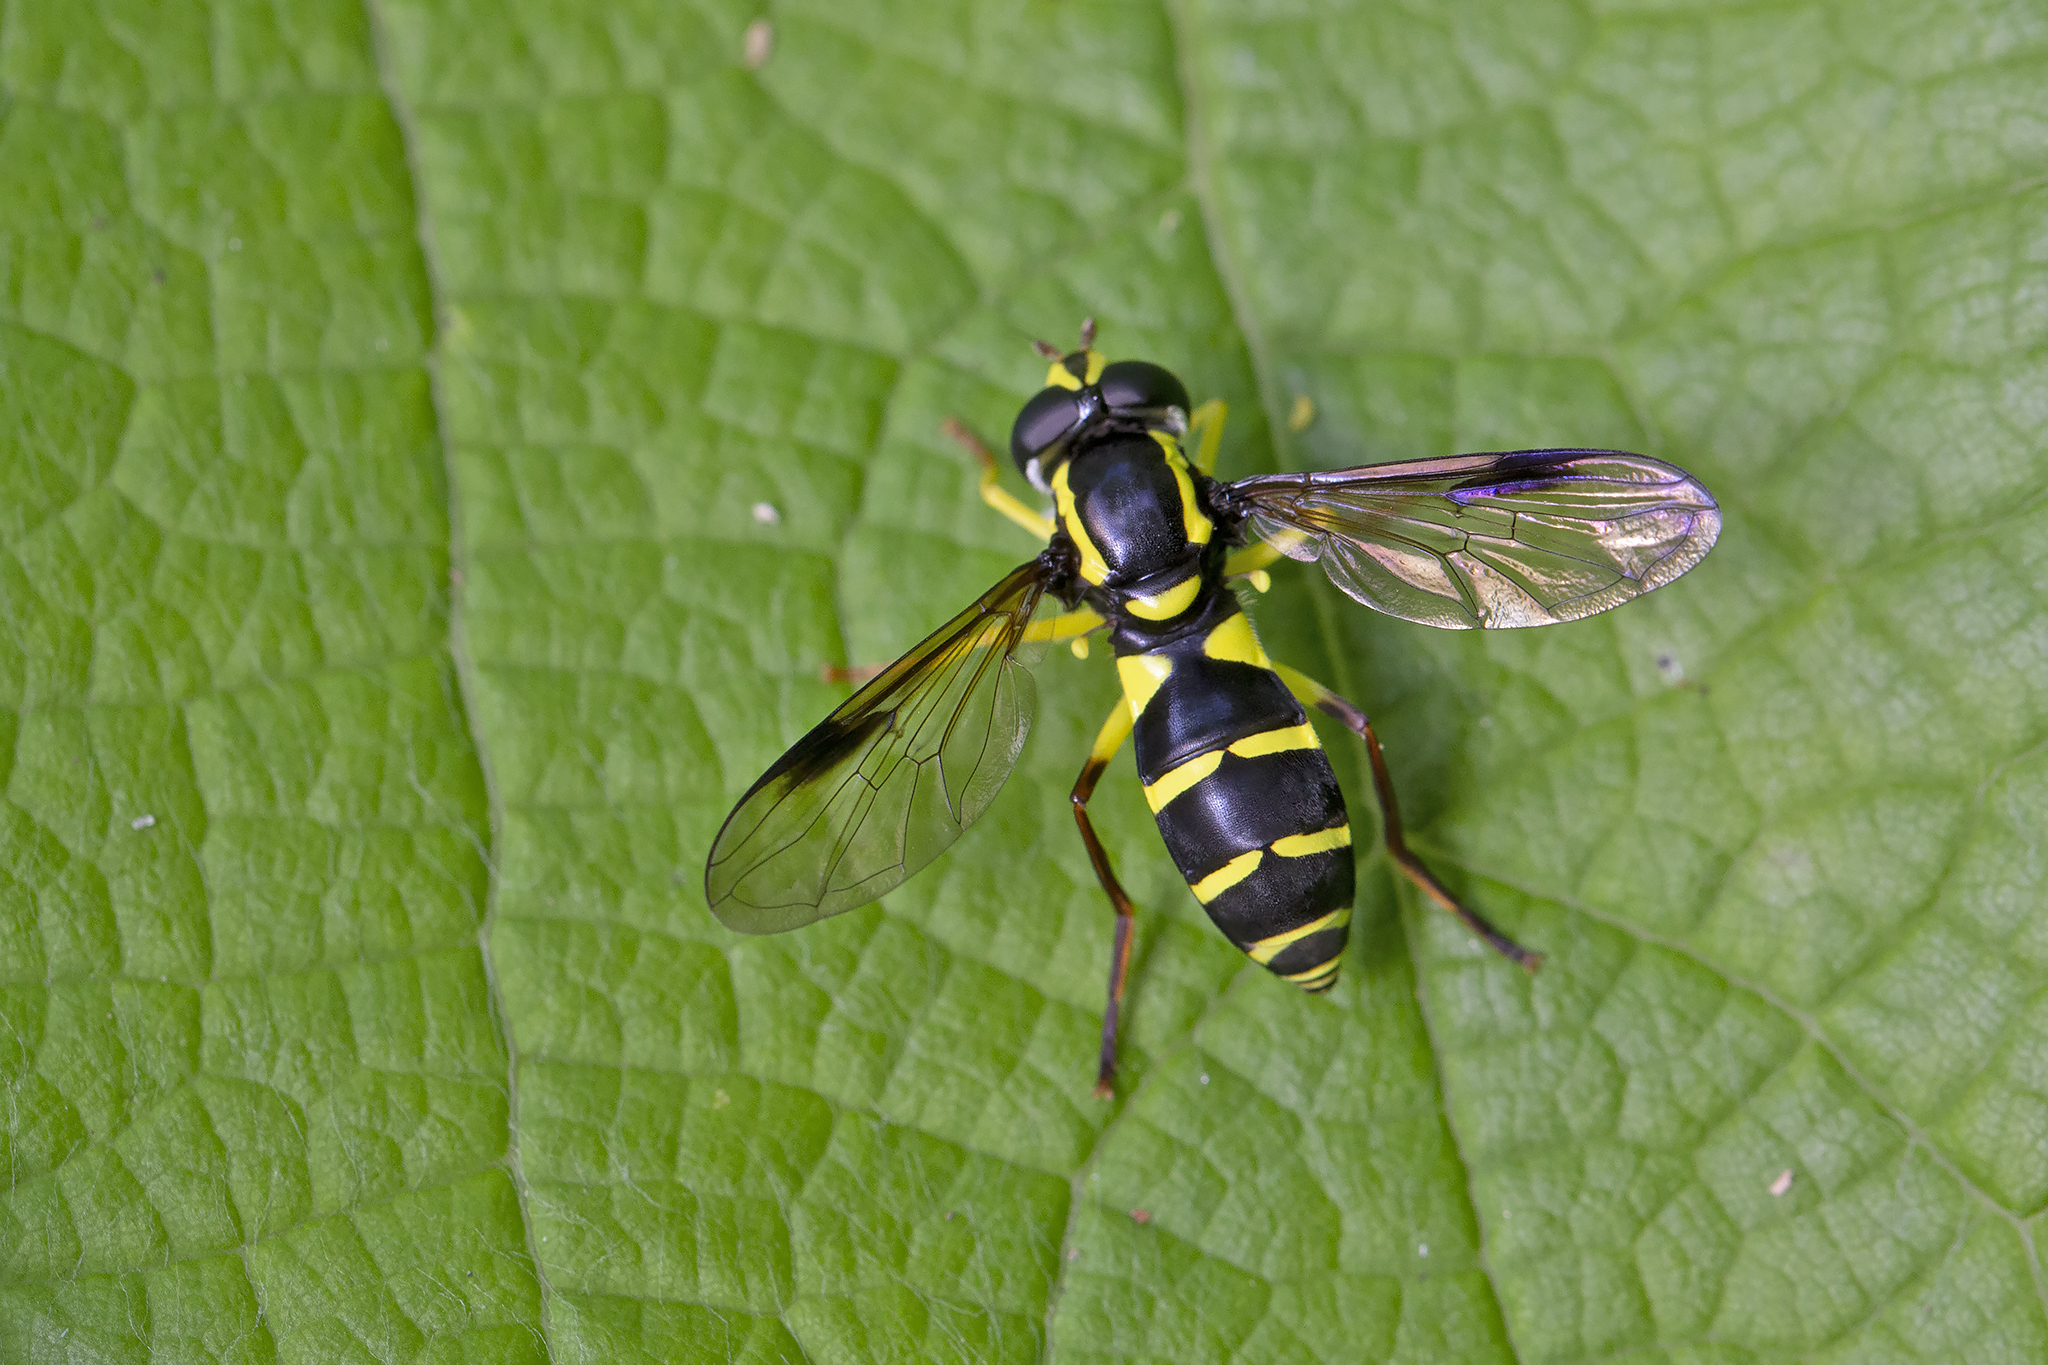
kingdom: Animalia
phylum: Arthropoda
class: Insecta
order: Diptera
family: Syrphidae
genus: Philhelius
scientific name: Philhelius pedissequum
